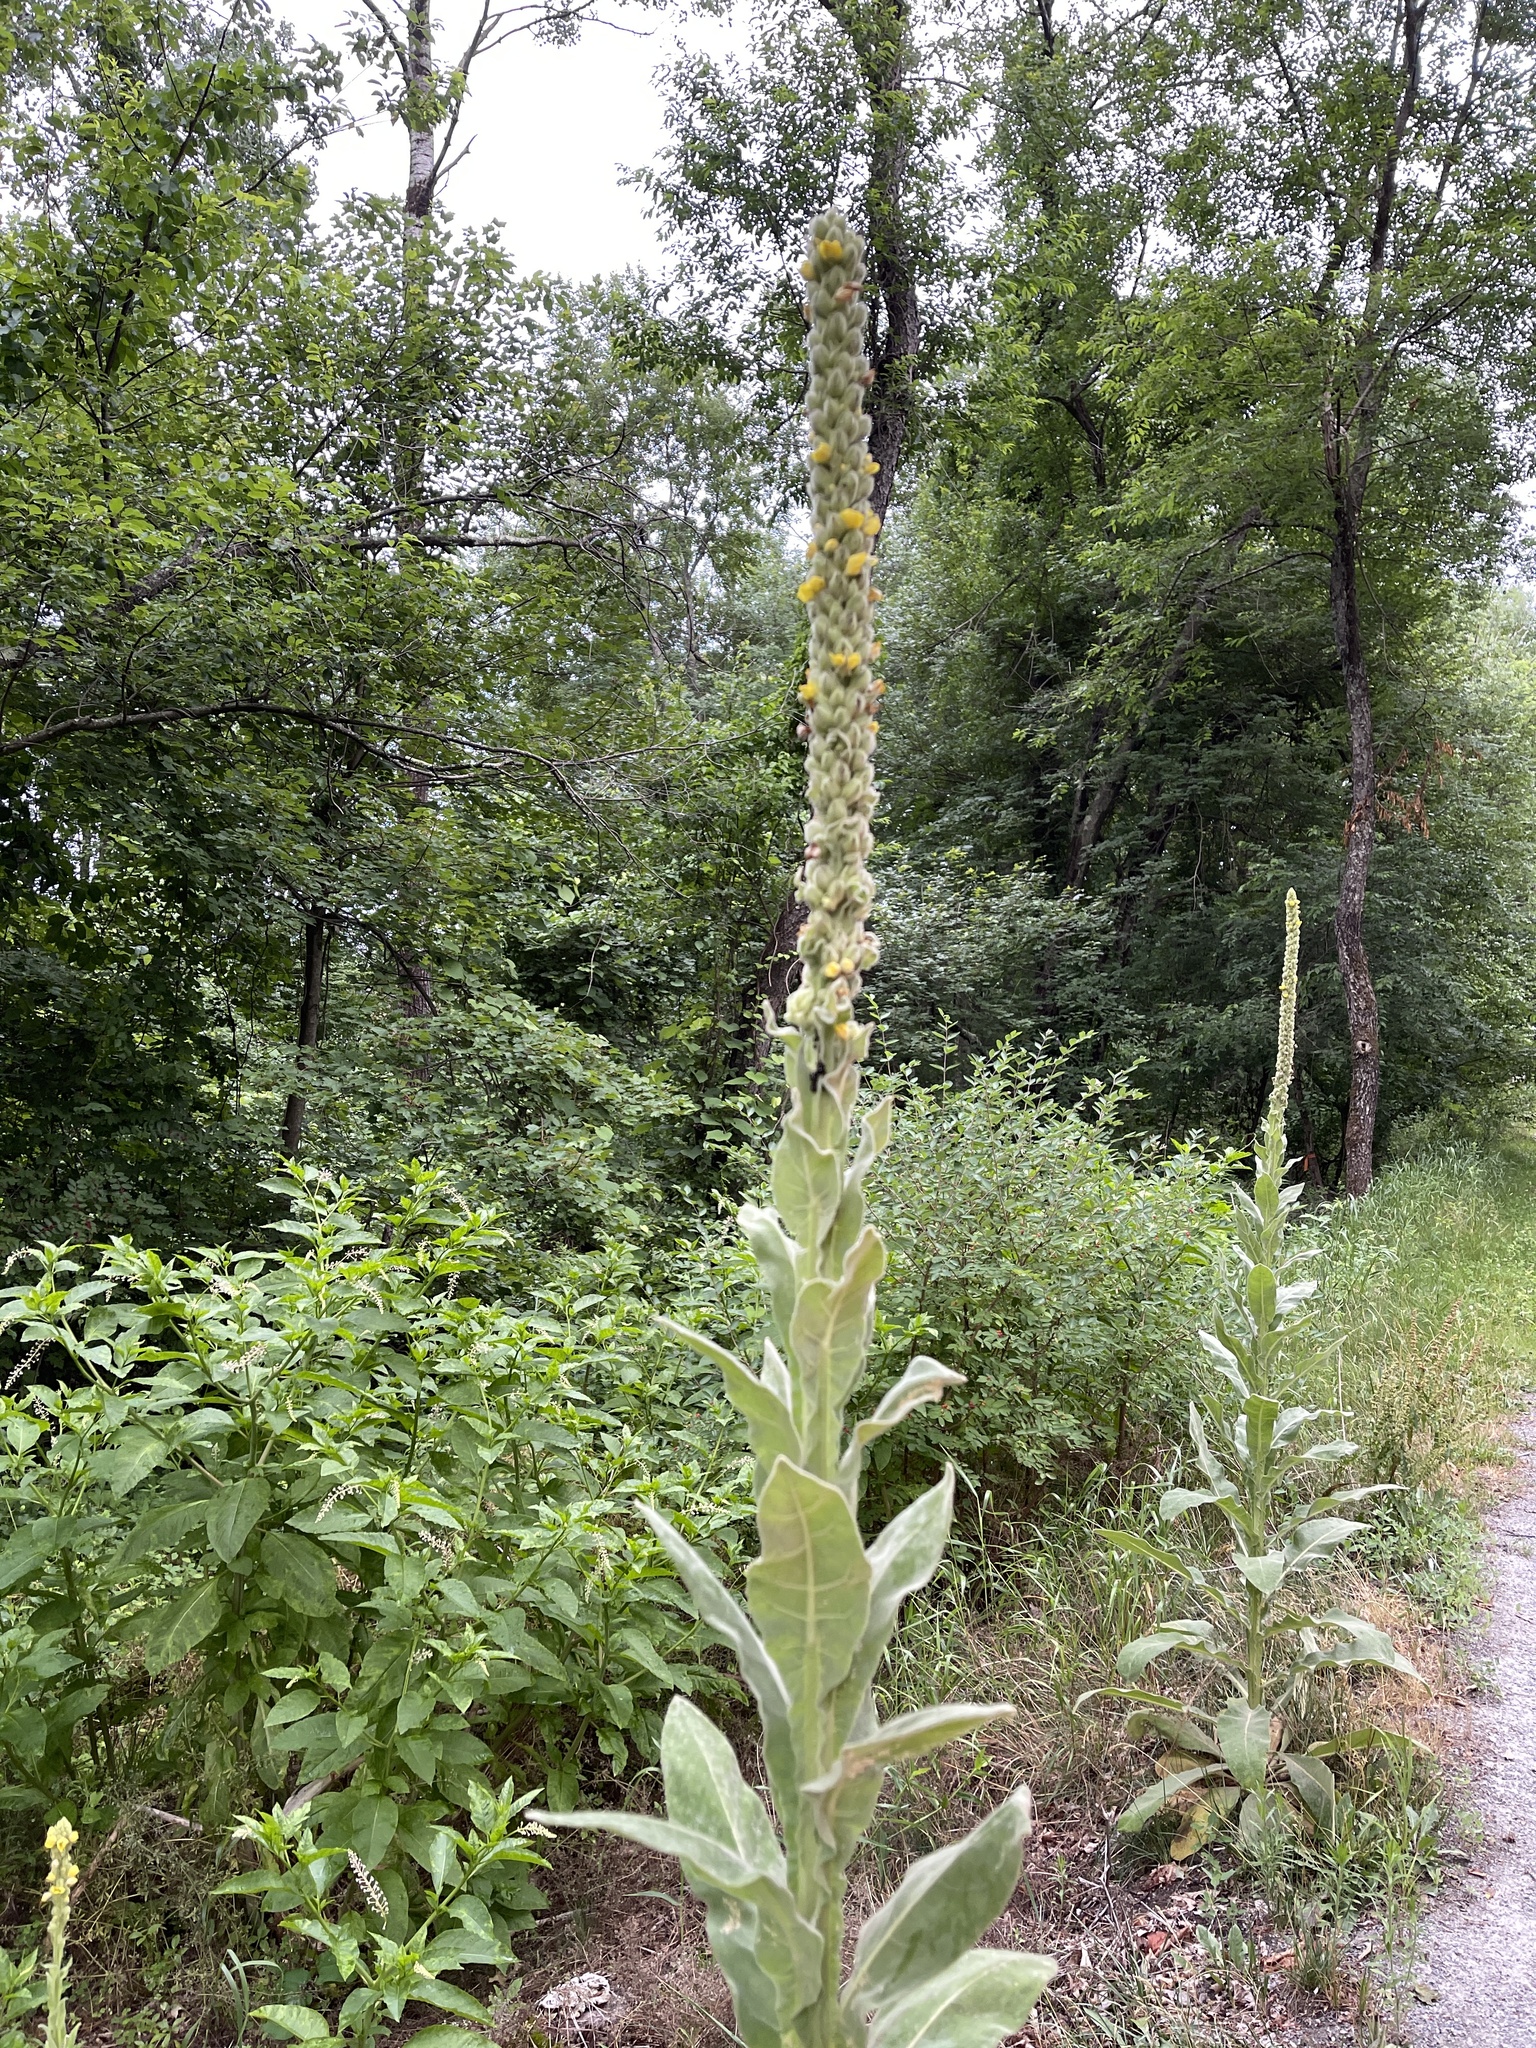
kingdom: Plantae
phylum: Tracheophyta
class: Magnoliopsida
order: Lamiales
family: Scrophulariaceae
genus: Verbascum
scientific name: Verbascum thapsus
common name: Common mullein
